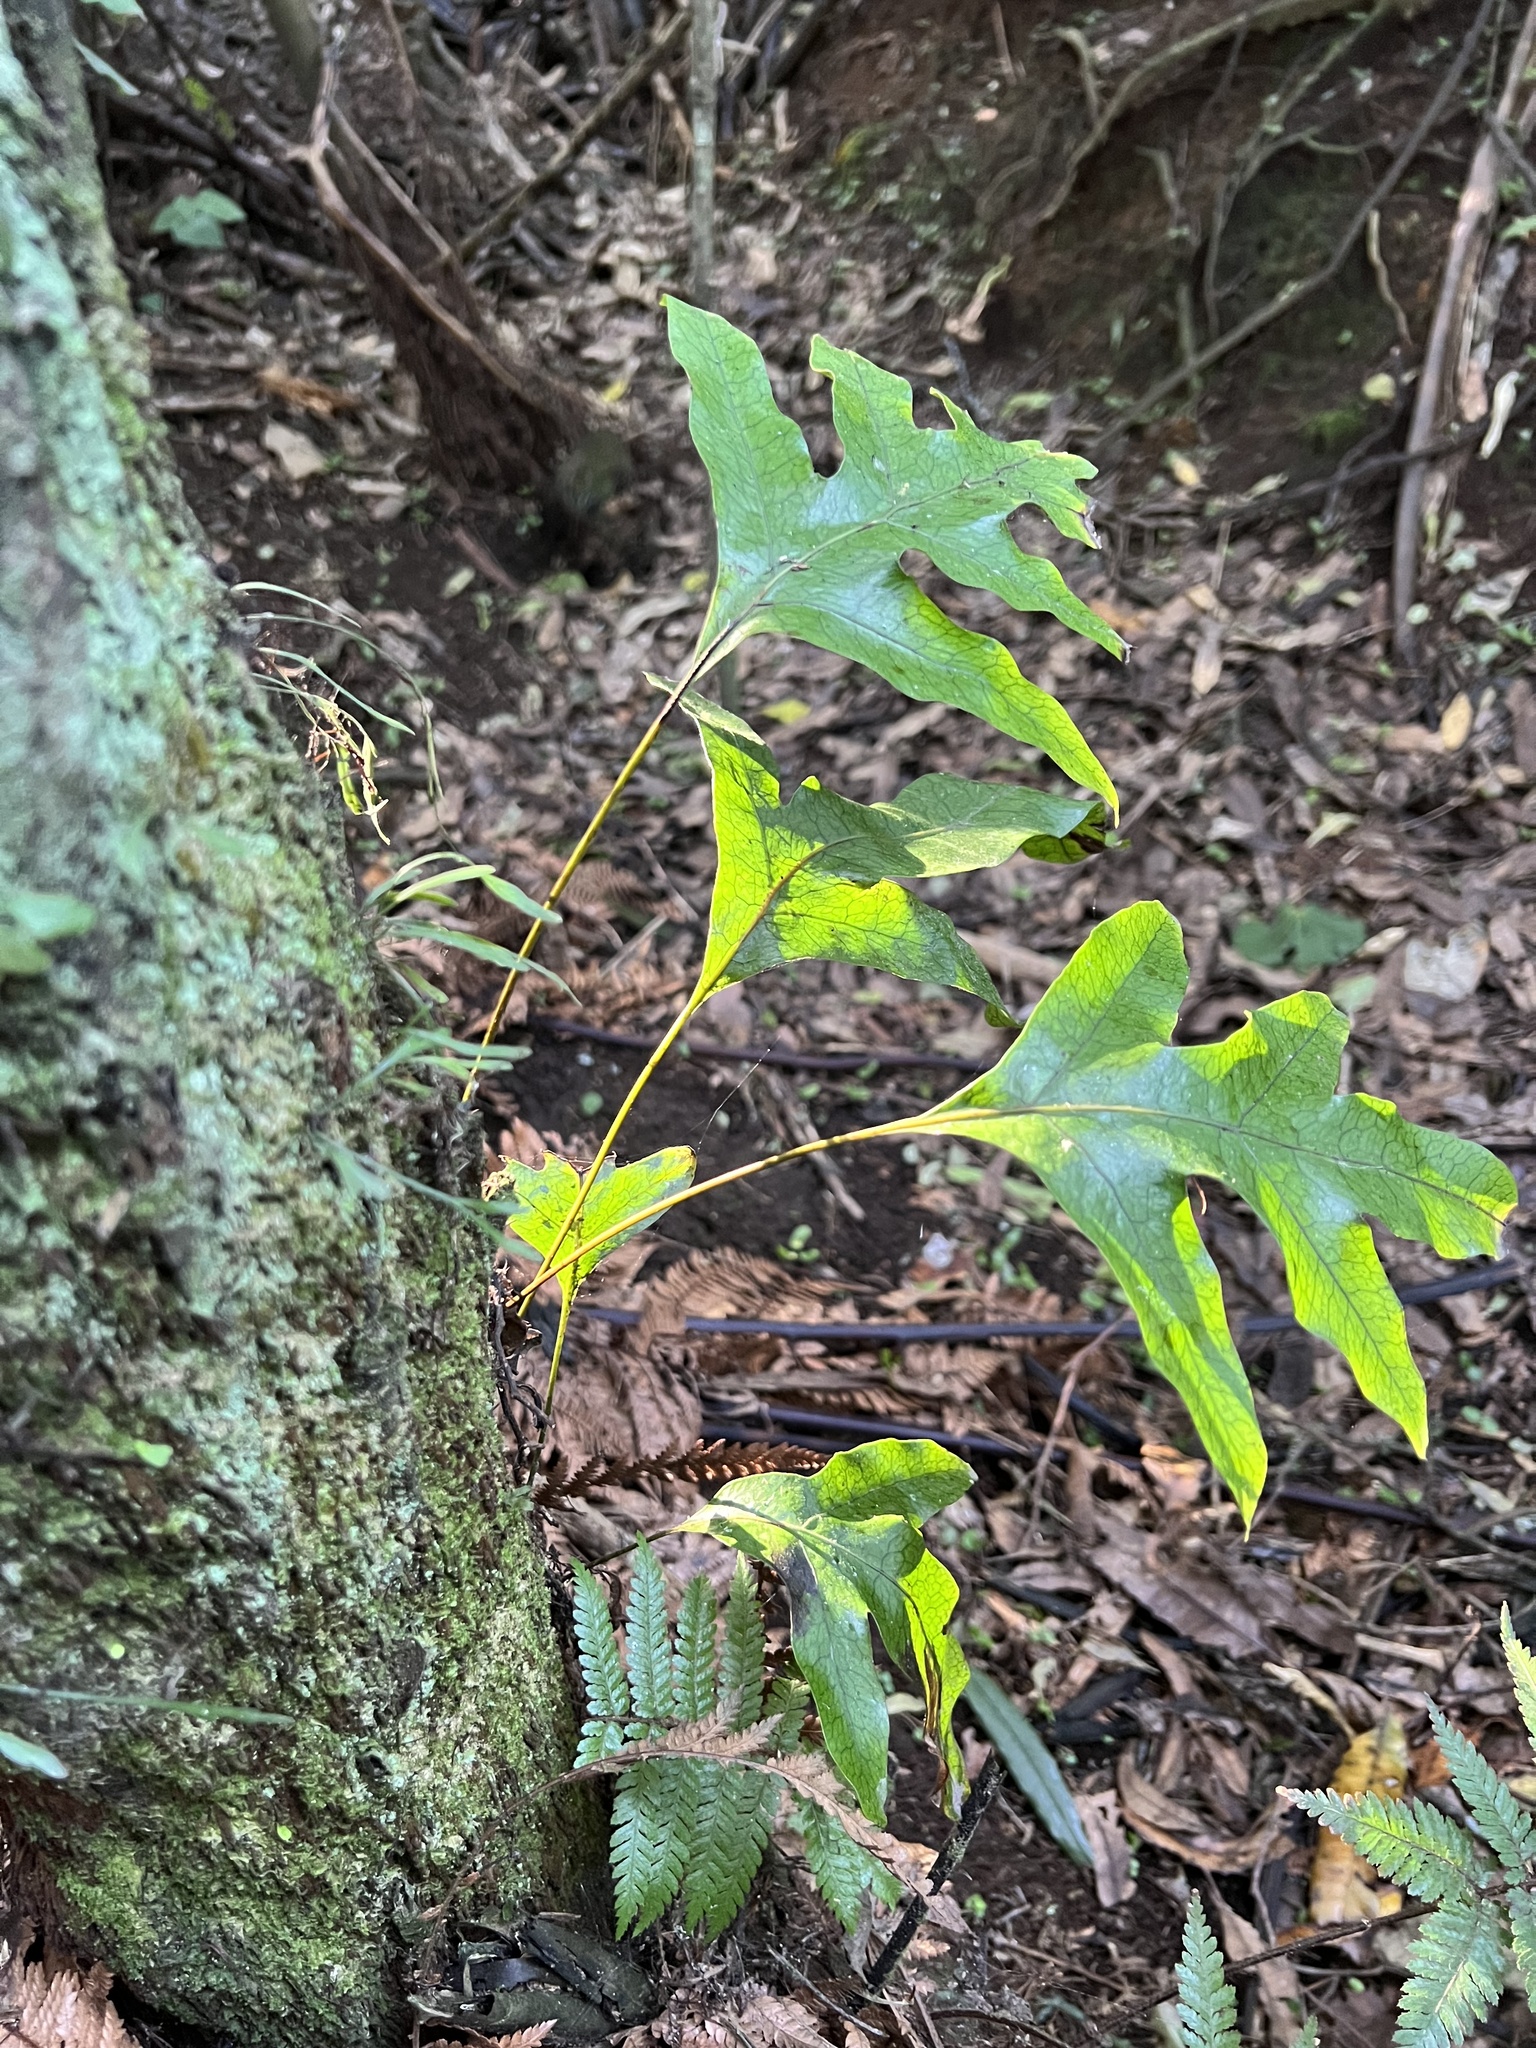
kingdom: Plantae
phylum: Tracheophyta
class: Polypodiopsida
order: Polypodiales
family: Polypodiaceae
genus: Lecanopteris
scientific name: Lecanopteris pustulata
